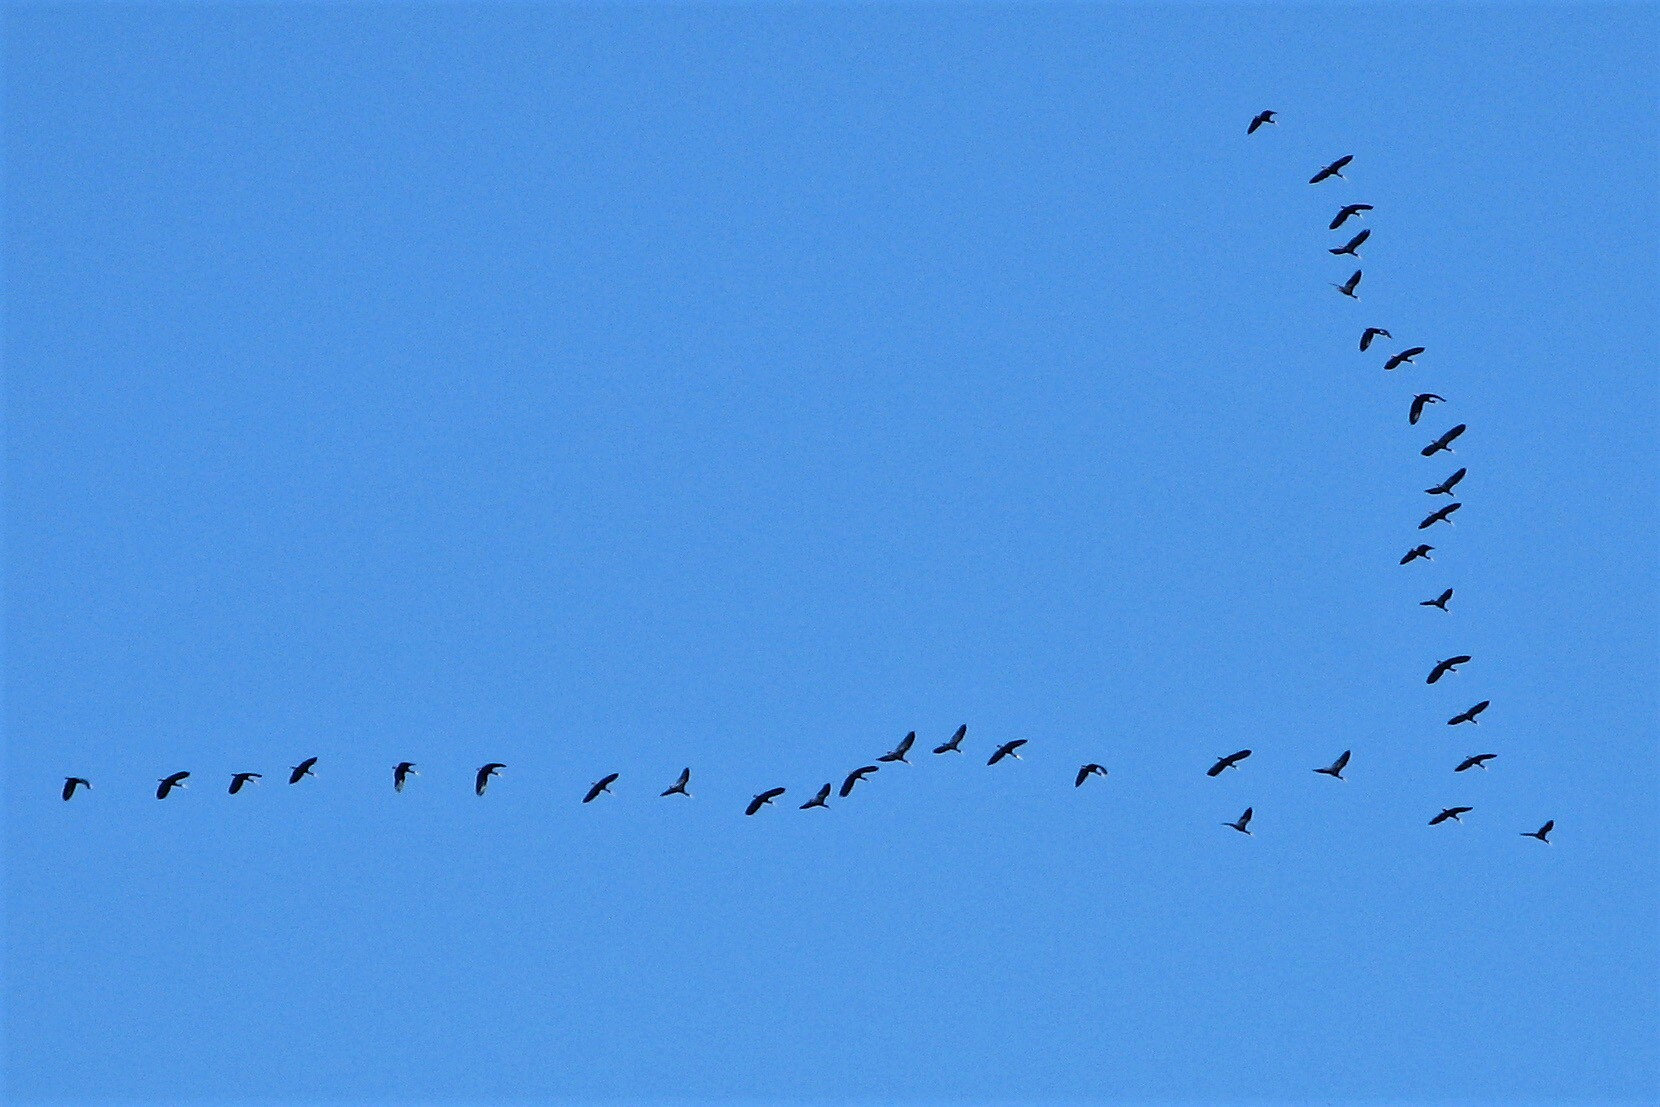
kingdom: Animalia
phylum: Chordata
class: Aves
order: Pelecaniformes
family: Threskiornithidae
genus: Plegadis
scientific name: Plegadis chihi
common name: White-faced ibis
